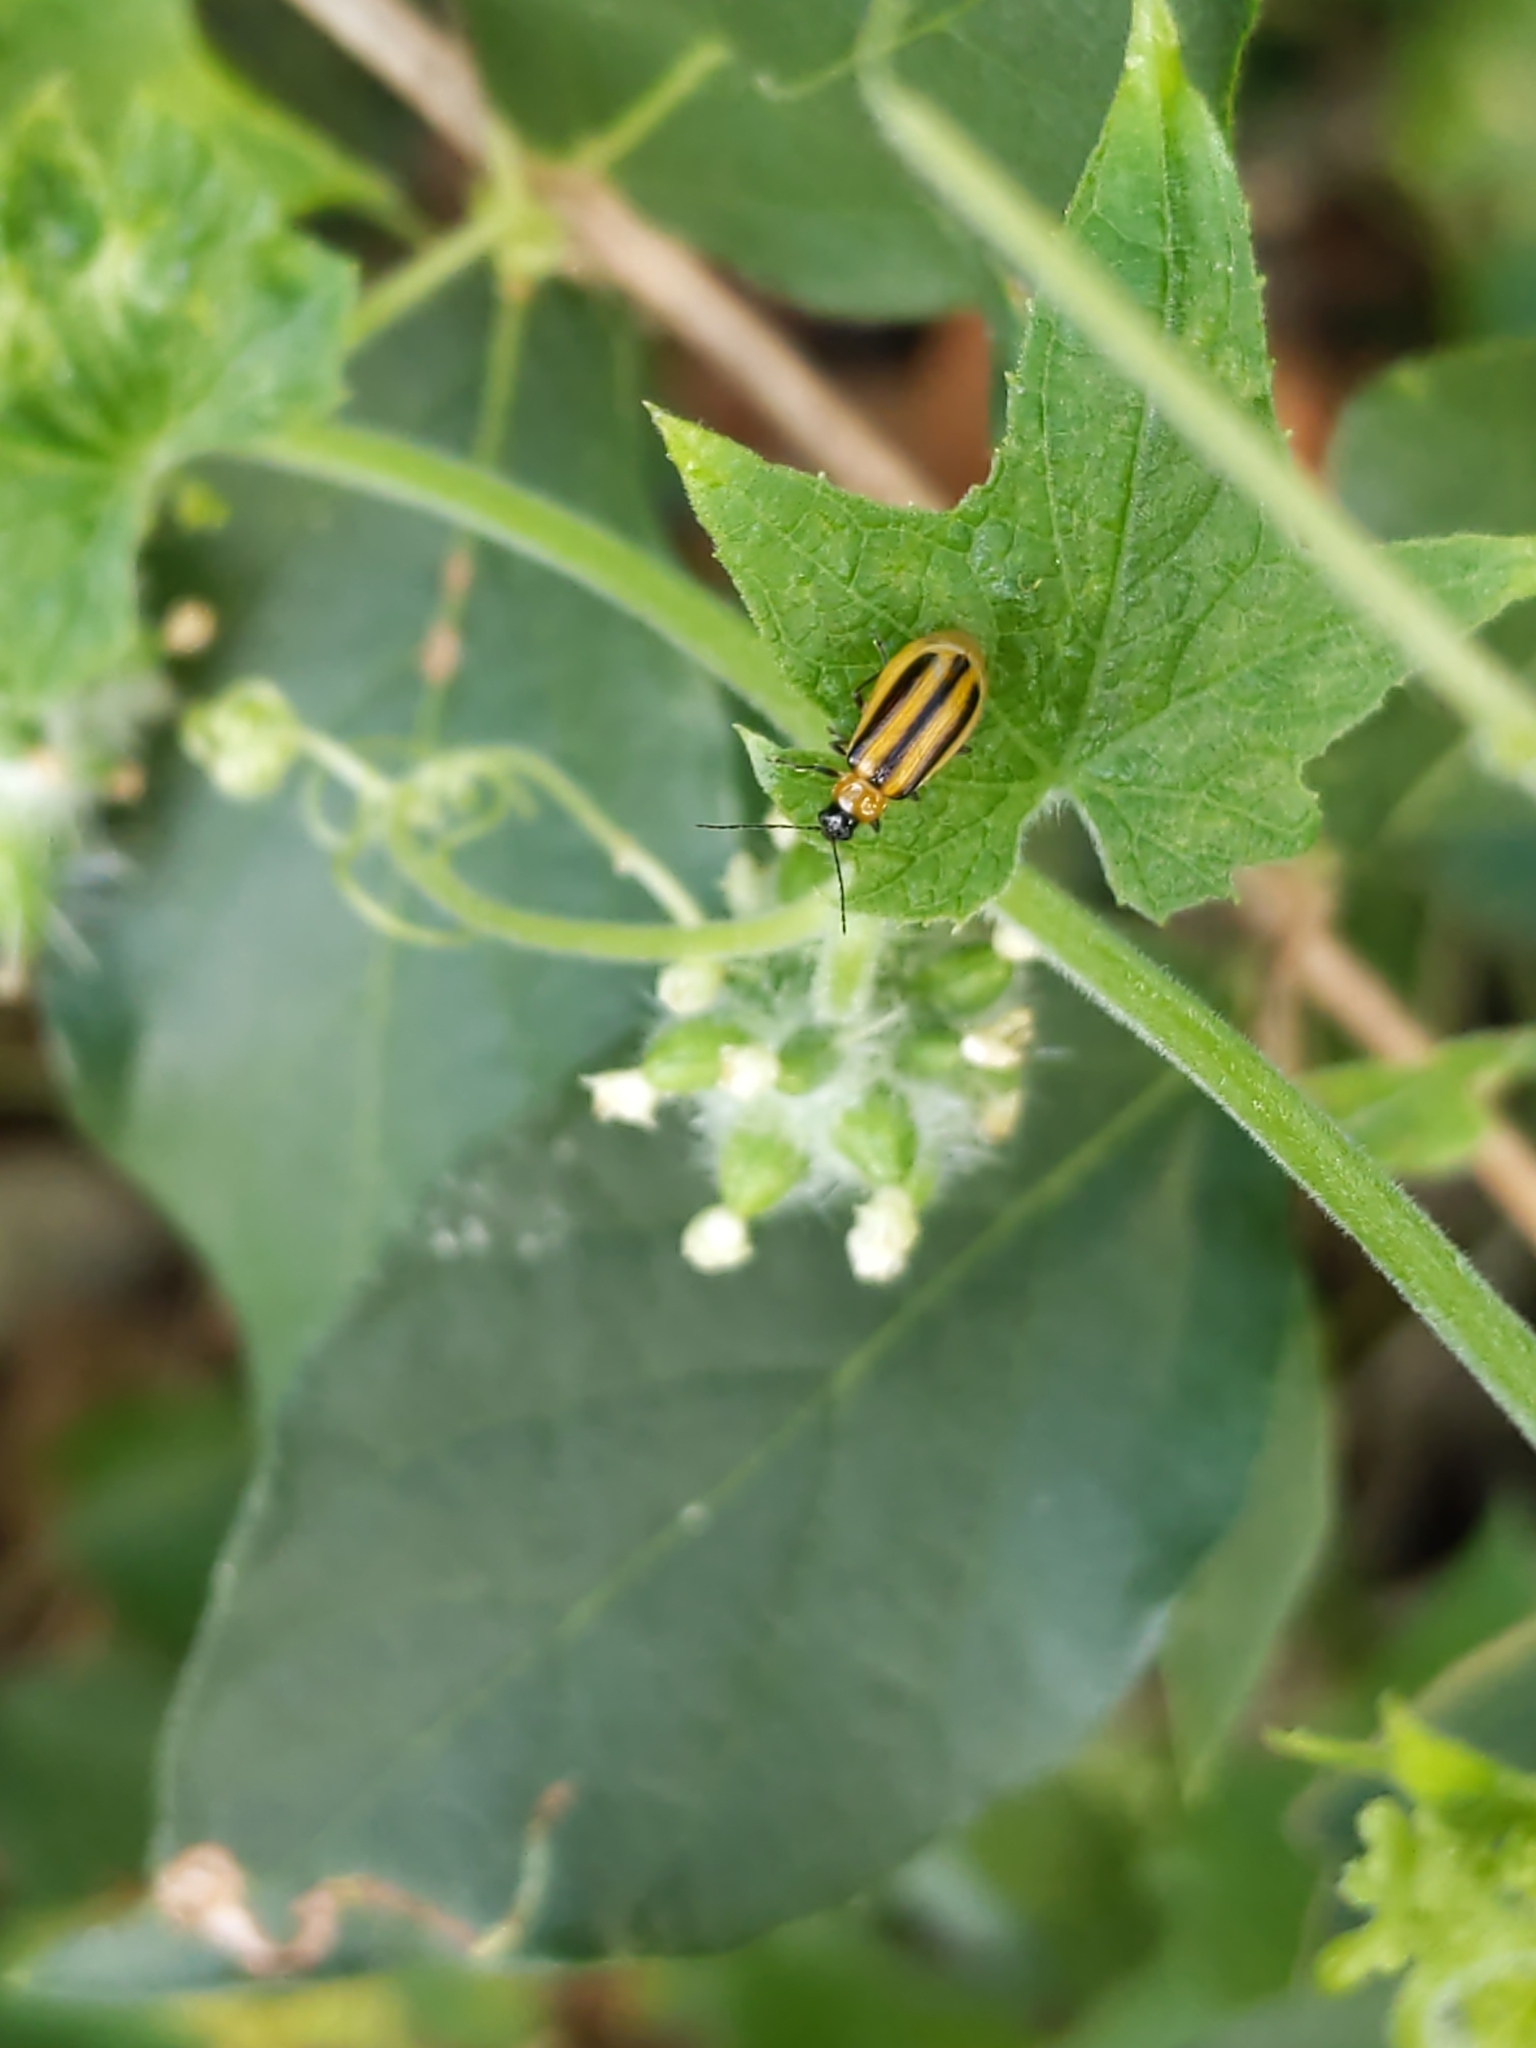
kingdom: Animalia
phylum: Arthropoda
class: Insecta
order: Coleoptera
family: Chrysomelidae
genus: Acalymma
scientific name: Acalymma vittatum
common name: Striped cucumber beetle
